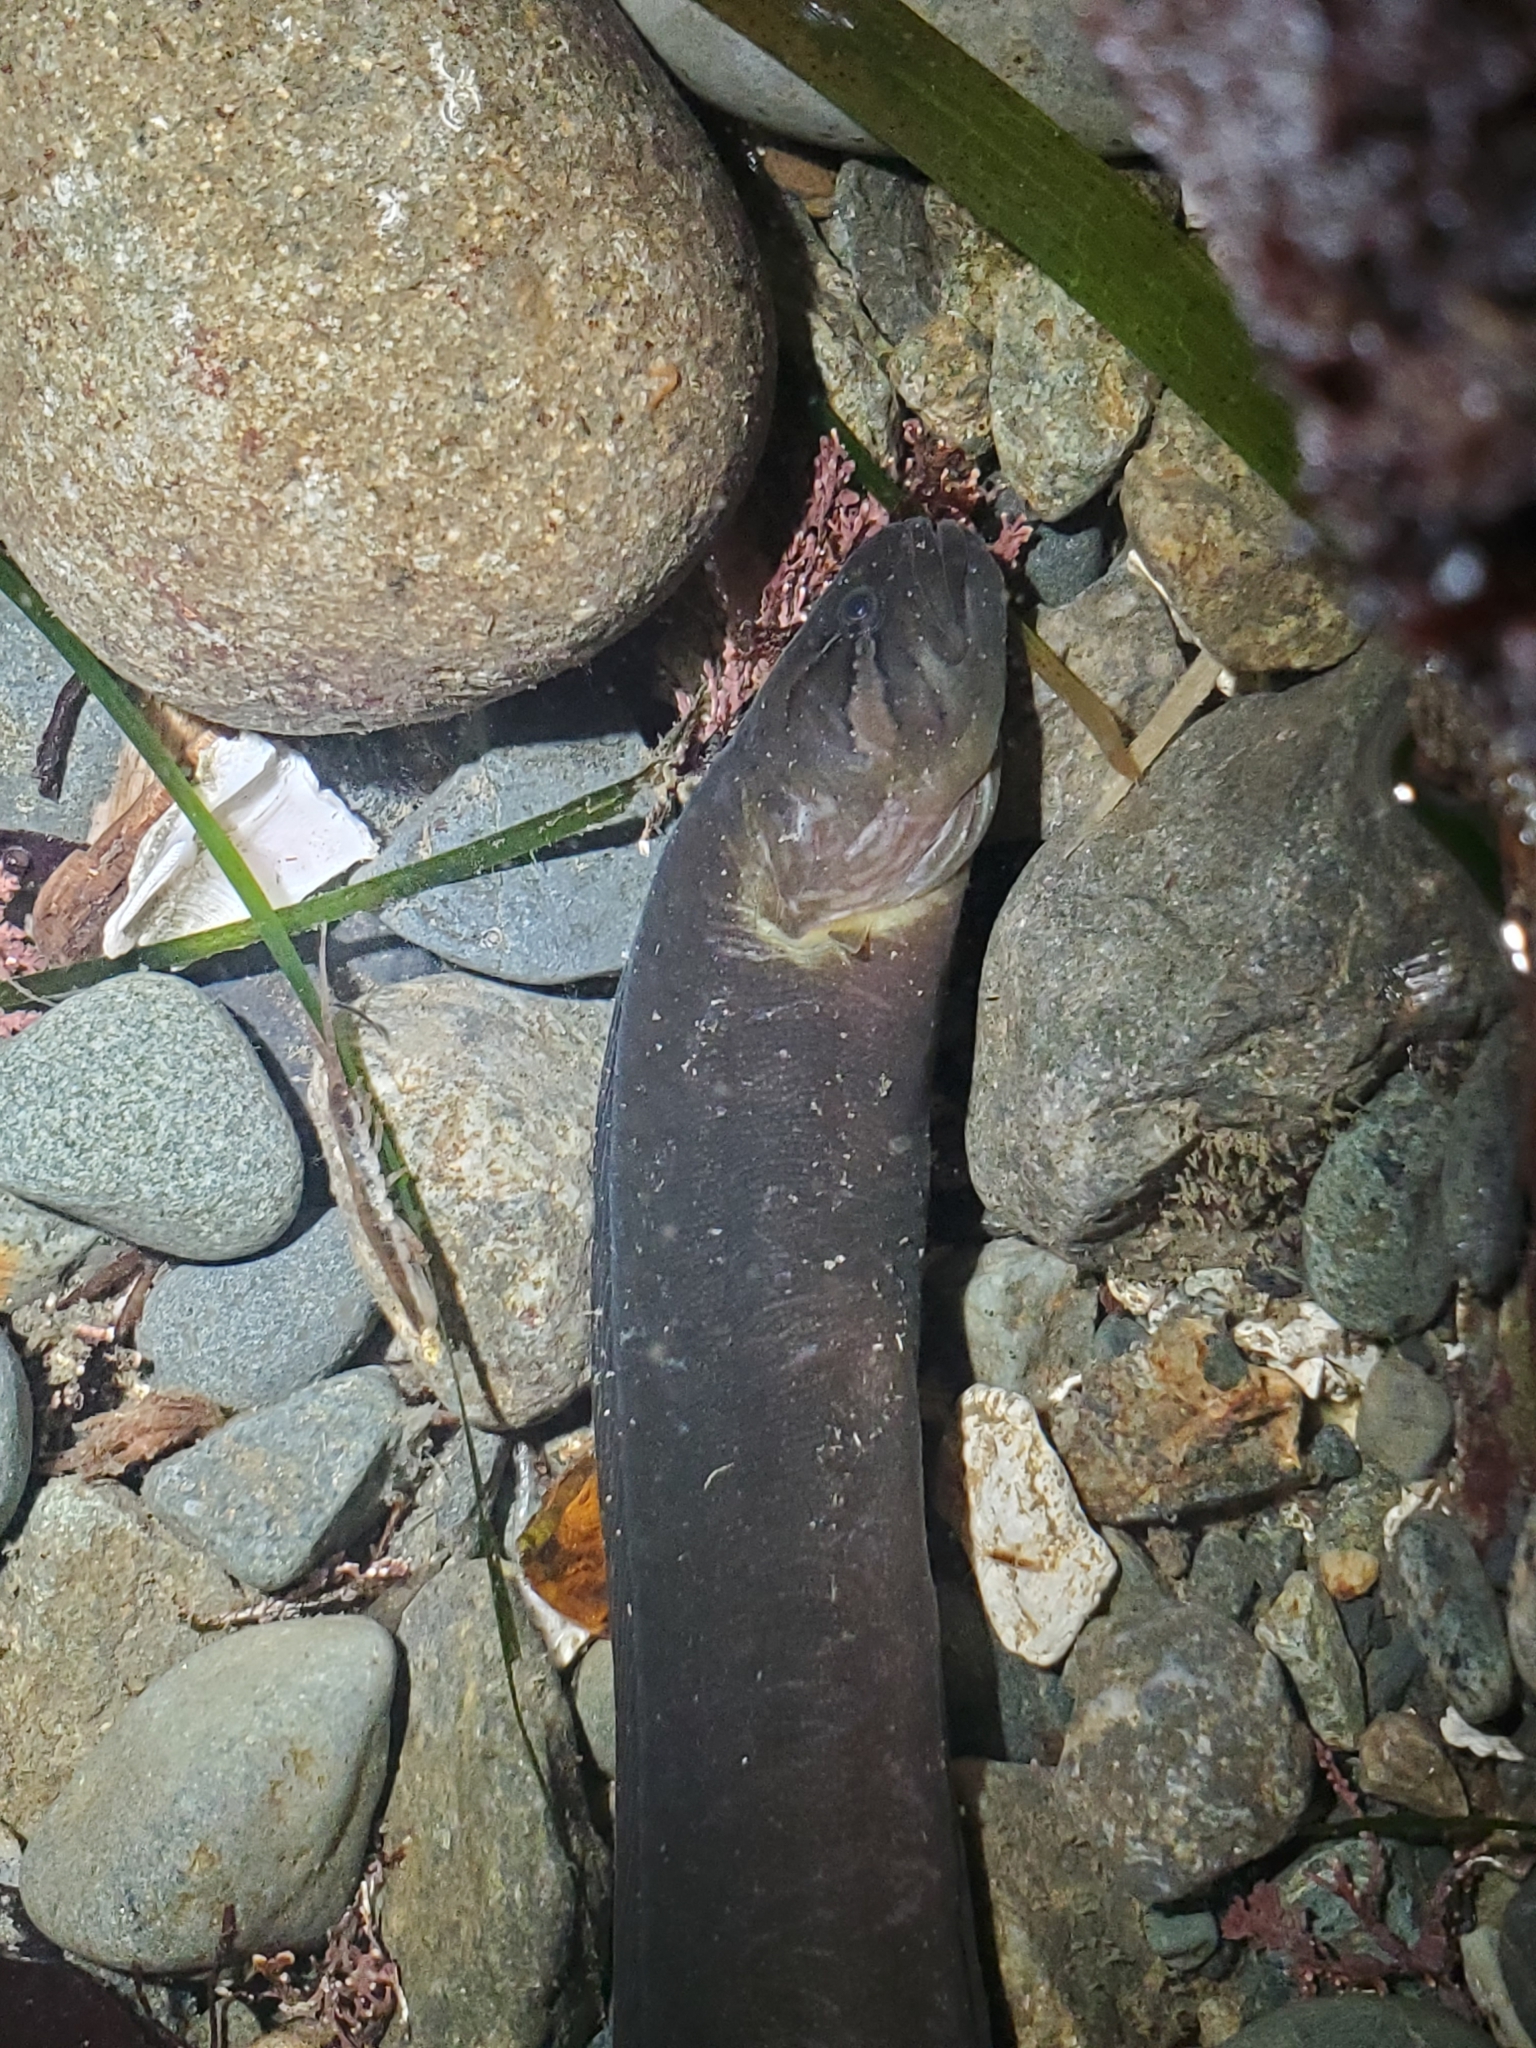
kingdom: Animalia
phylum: Chordata
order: Perciformes
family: Stichaeidae
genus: Xiphister
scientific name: Xiphister mucosus
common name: Rock prickleback
